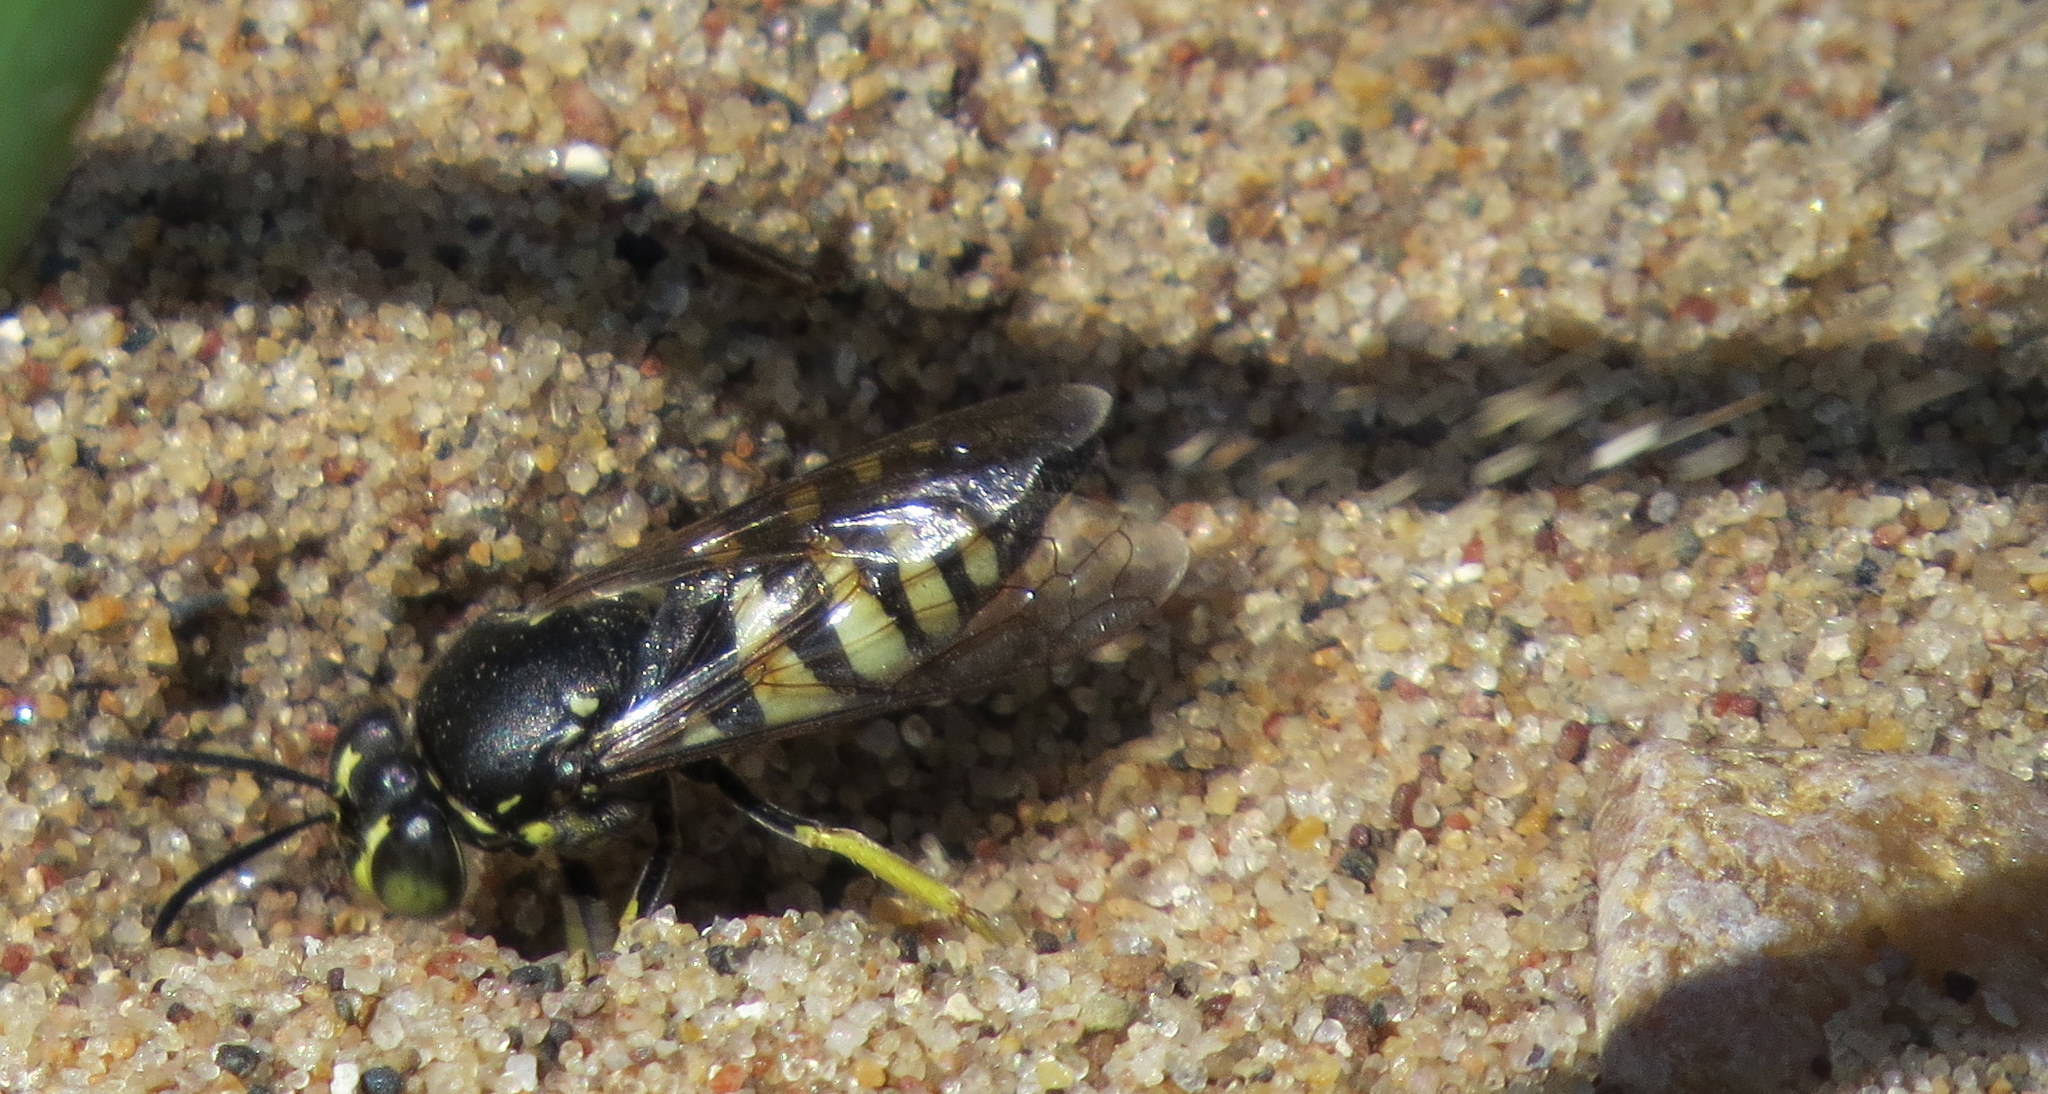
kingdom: Animalia
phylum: Arthropoda
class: Insecta
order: Hymenoptera
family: Crabronidae
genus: Bicyrtes
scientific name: Bicyrtes quadrifasciatus
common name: Four-banded stink bug hunter wasp
